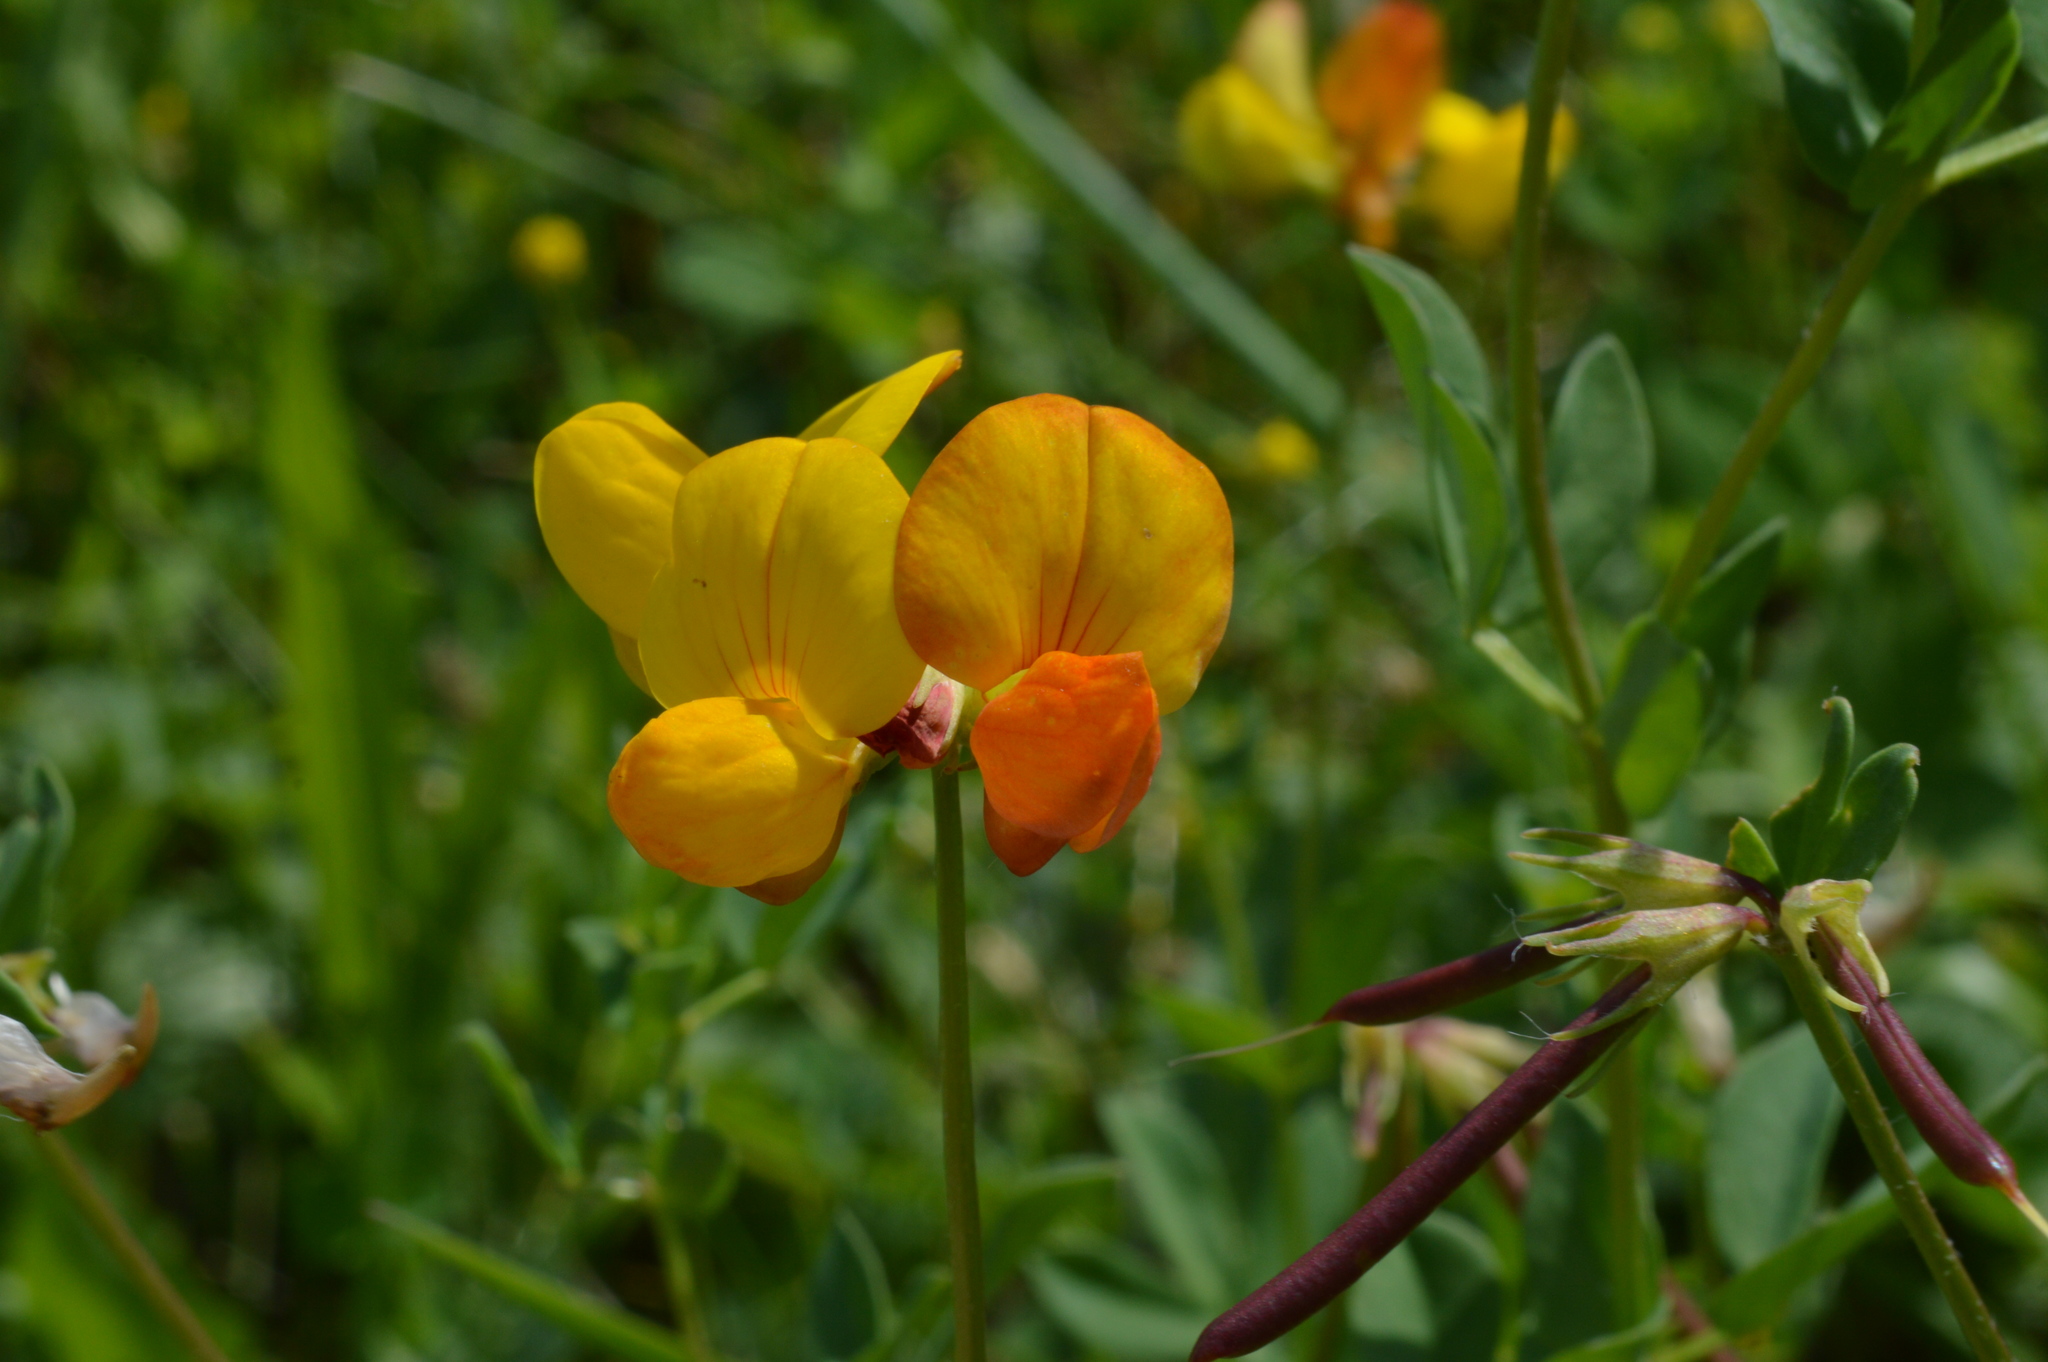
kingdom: Plantae
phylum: Tracheophyta
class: Magnoliopsida
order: Fabales
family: Fabaceae
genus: Lotus
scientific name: Lotus corniculatus
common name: Common bird's-foot-trefoil
